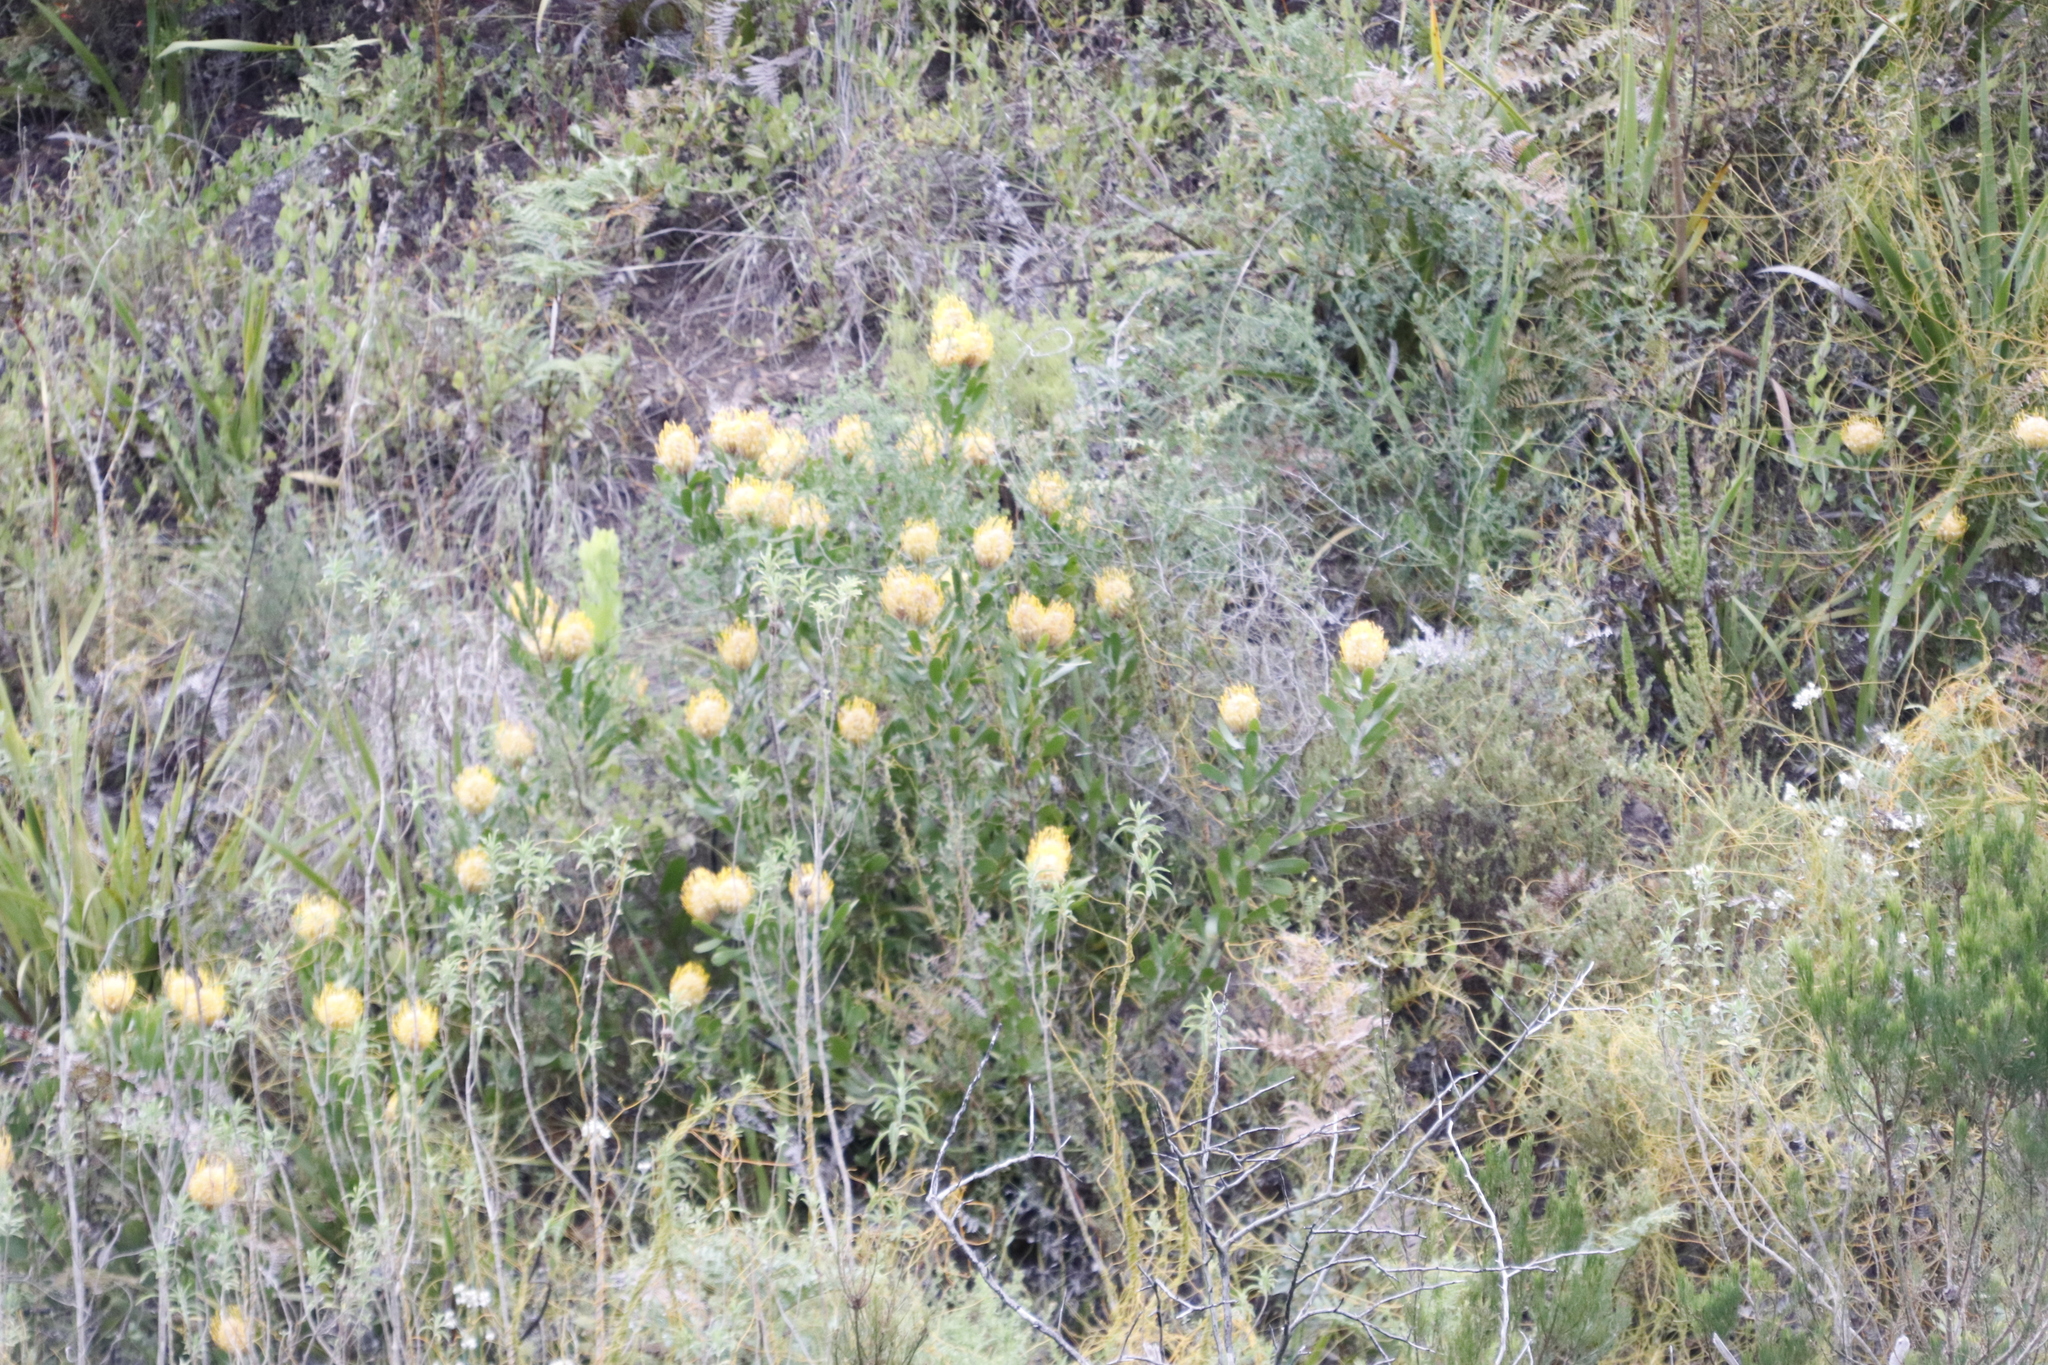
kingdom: Plantae
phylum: Tracheophyta
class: Magnoliopsida
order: Proteales
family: Proteaceae
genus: Leucospermum
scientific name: Leucospermum cuneiforme
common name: Common pincushion
